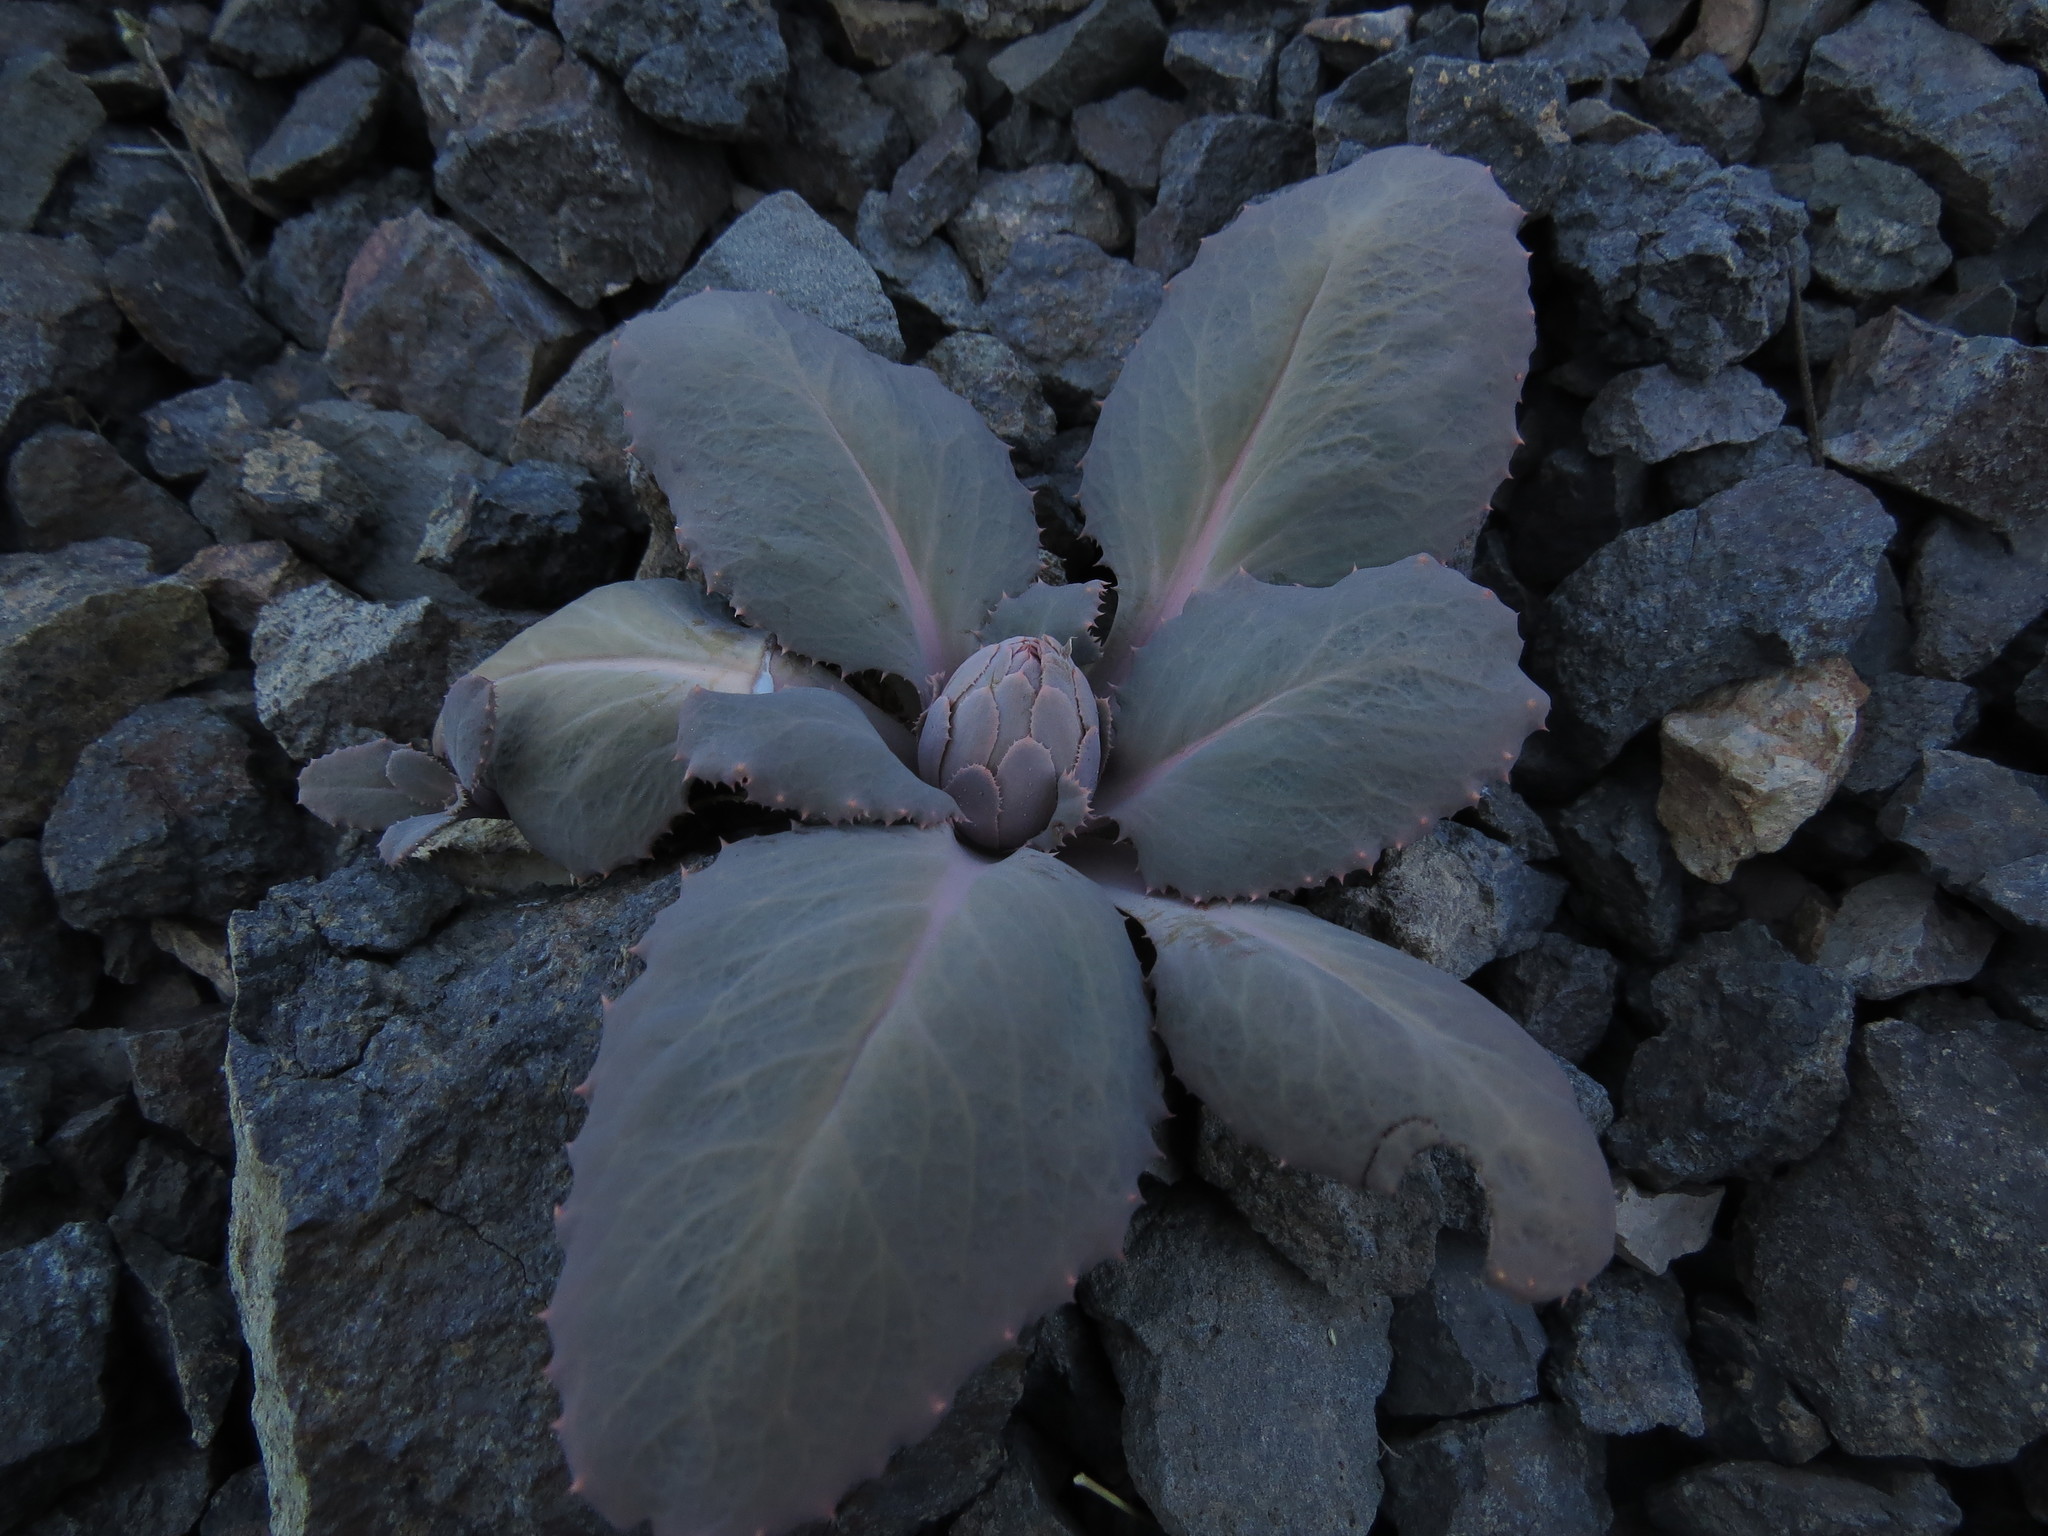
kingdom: Plantae
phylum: Tracheophyta
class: Magnoliopsida
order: Asterales
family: Asteraceae
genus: Pachylaena
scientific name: Pachylaena atriplicifolia
